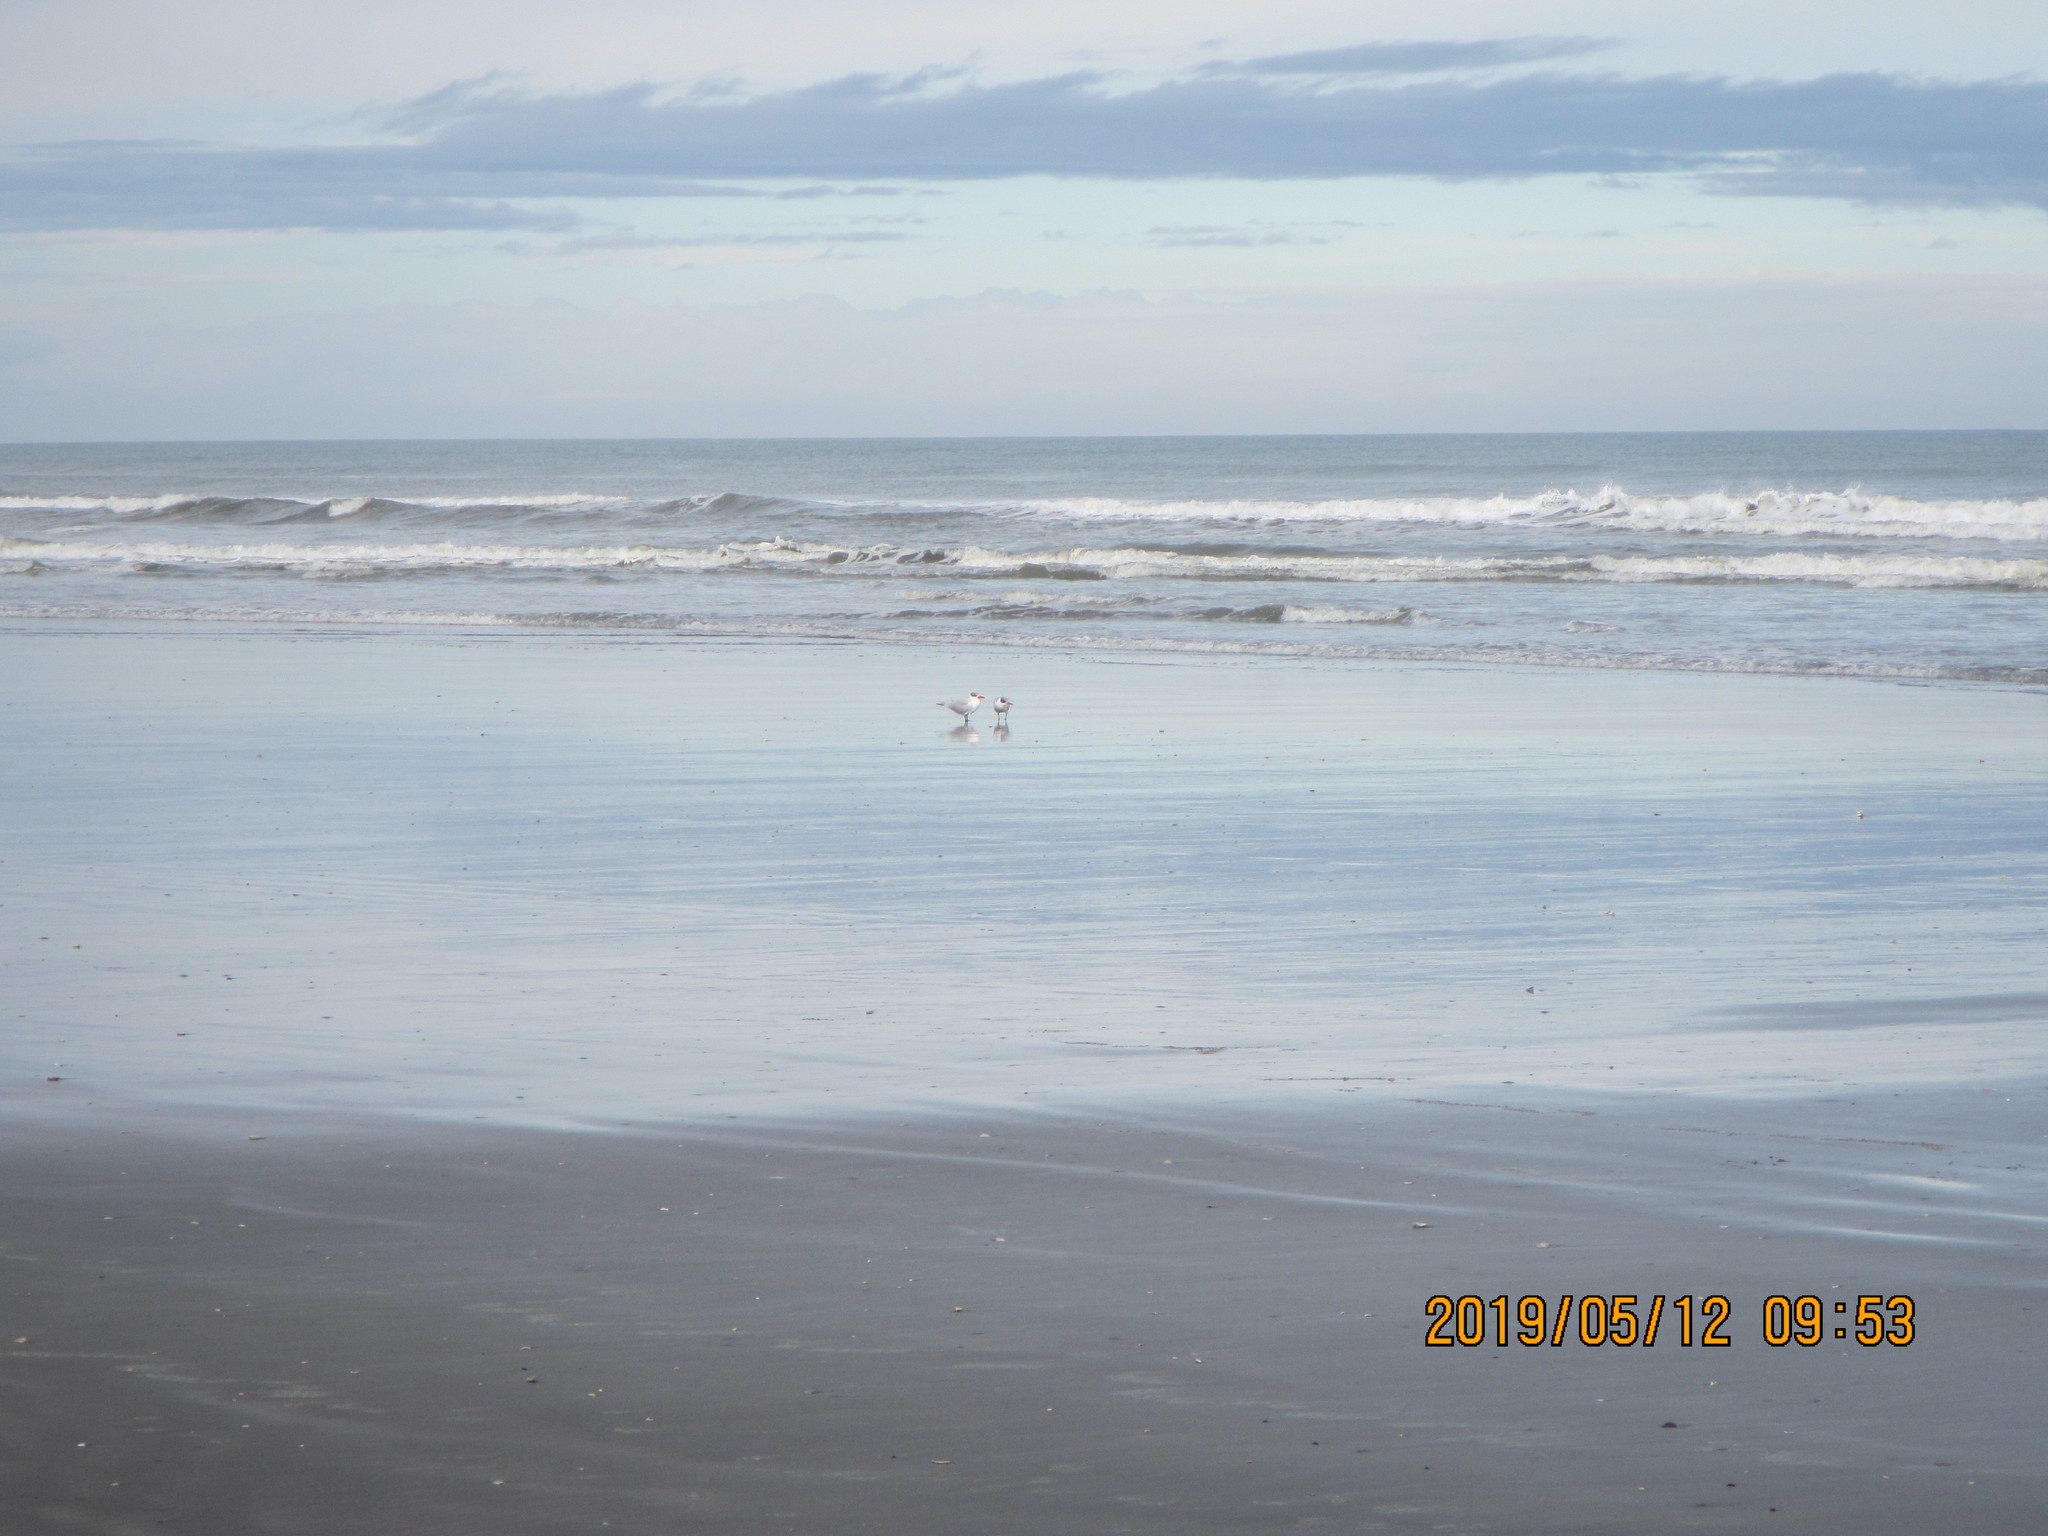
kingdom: Animalia
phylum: Chordata
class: Aves
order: Charadriiformes
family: Laridae
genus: Hydroprogne
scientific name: Hydroprogne caspia
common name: Caspian tern
